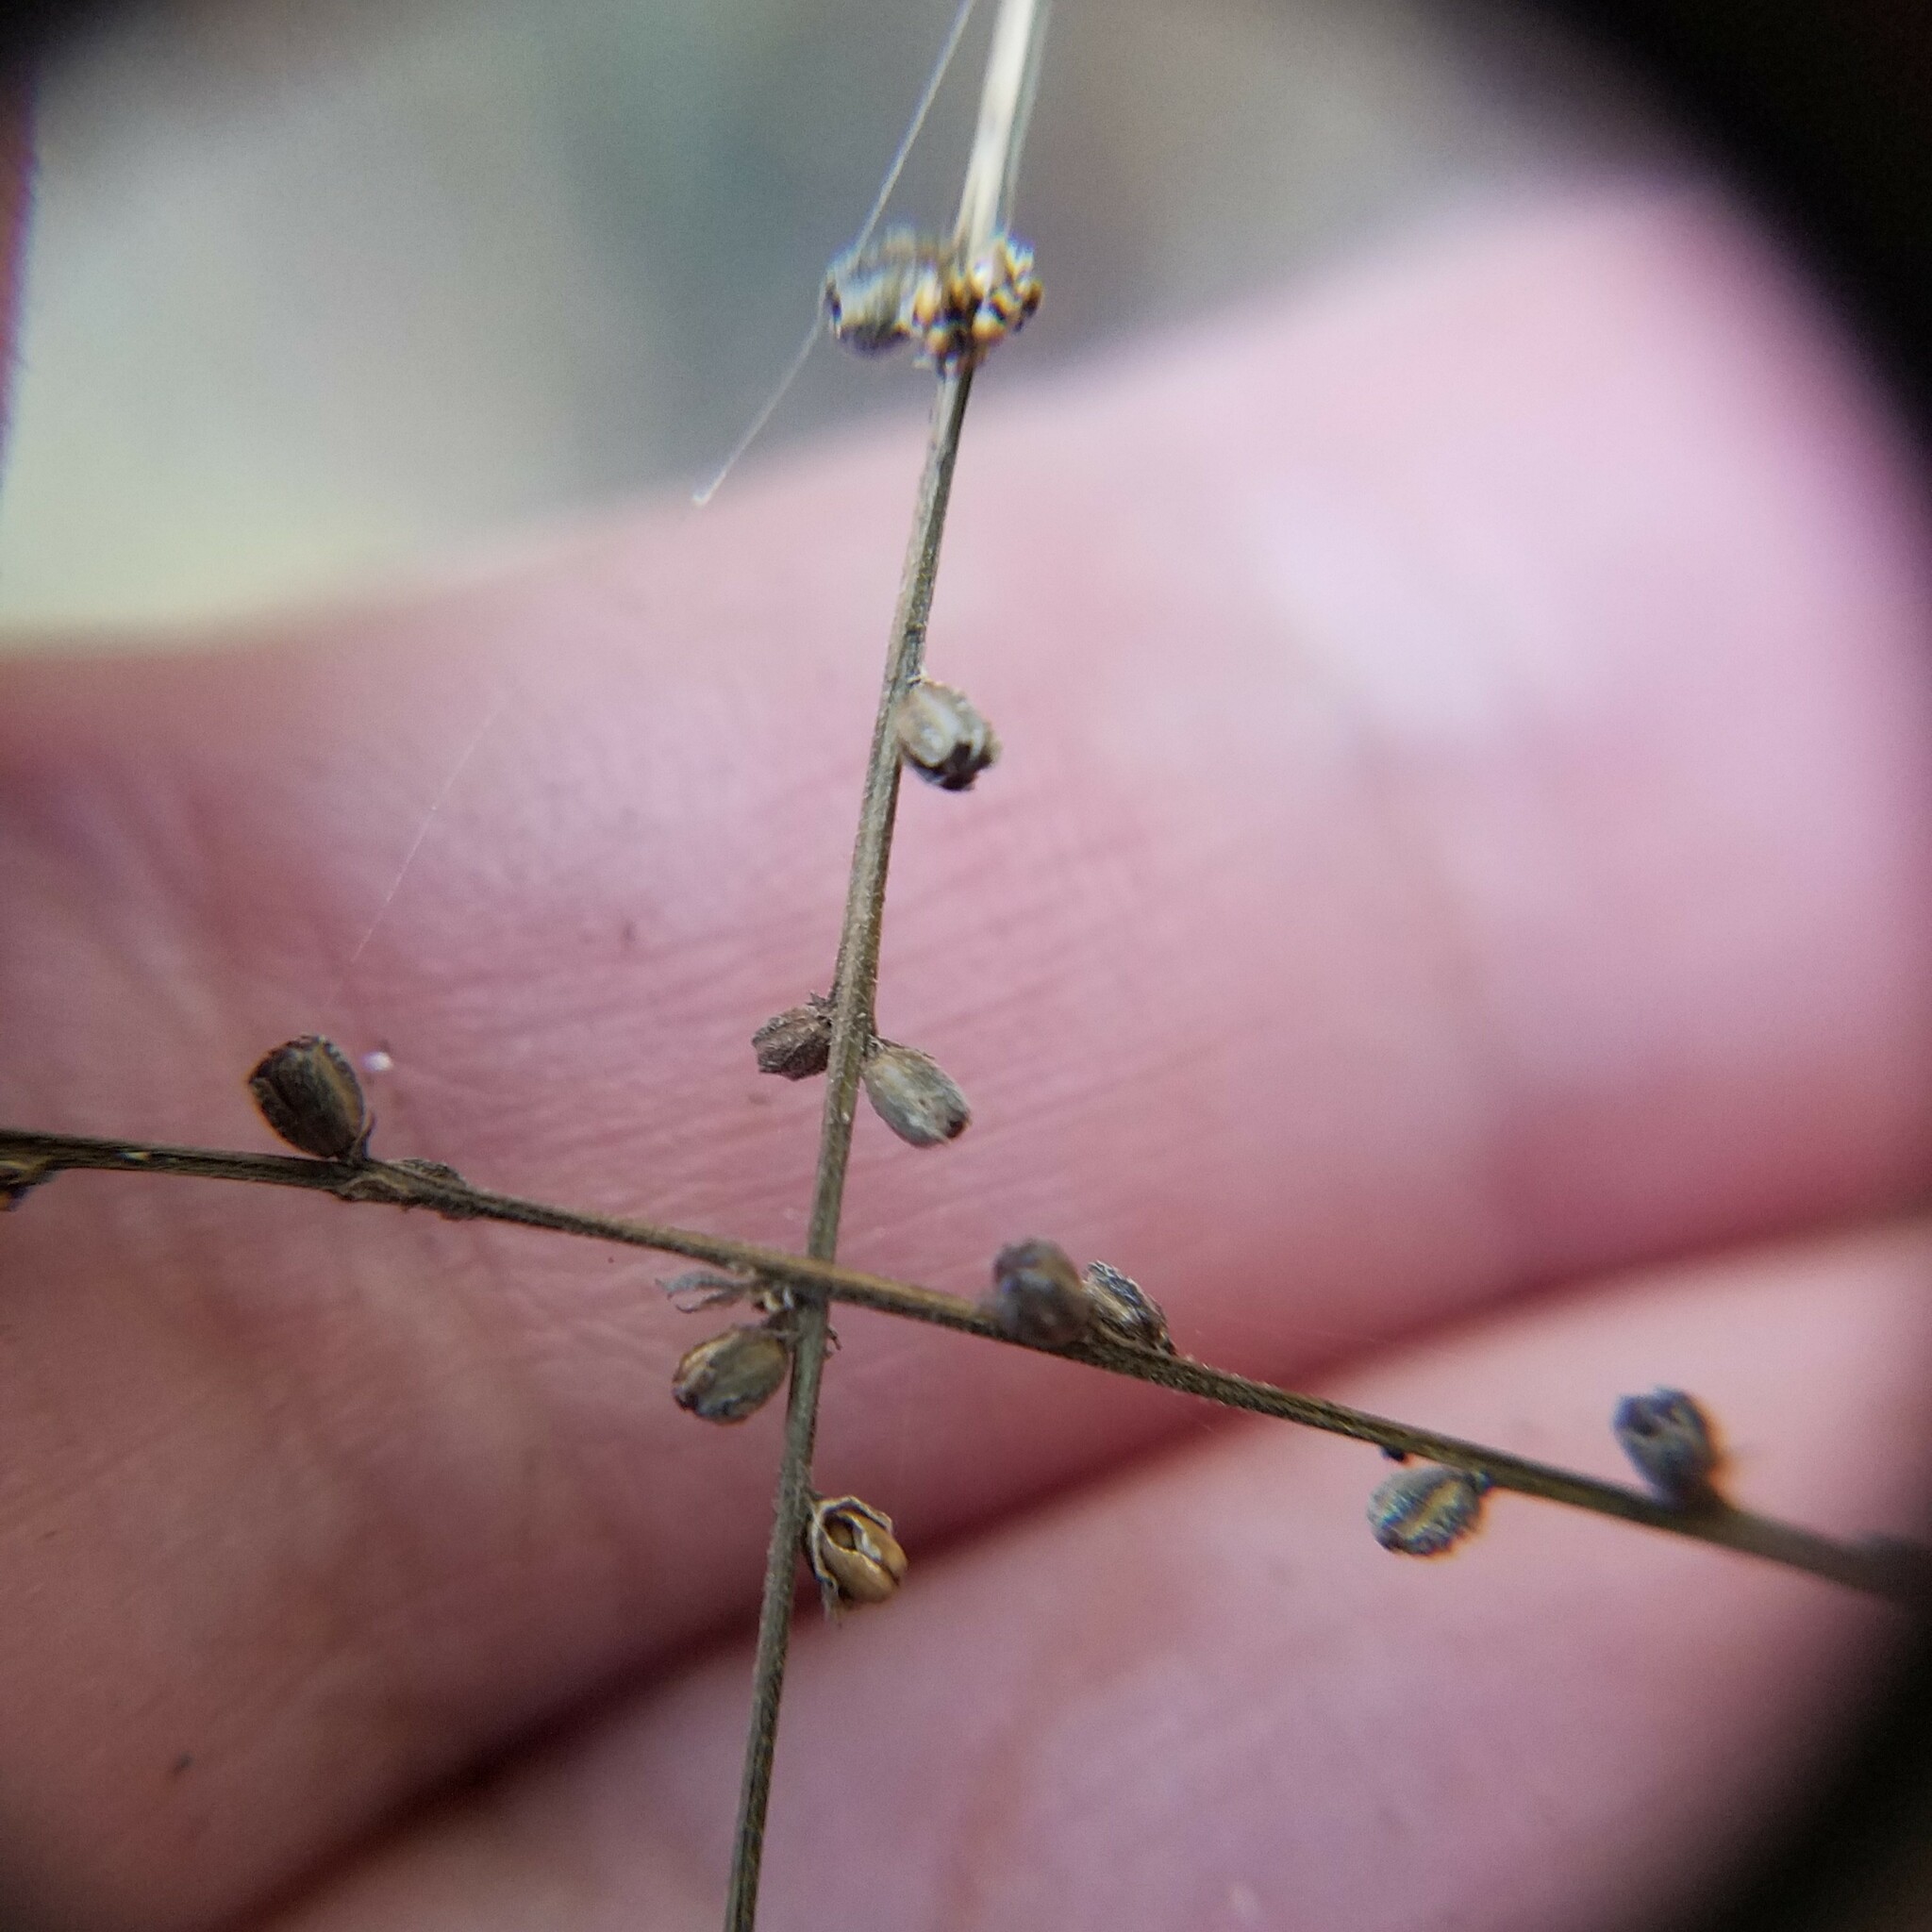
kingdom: Plantae
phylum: Tracheophyta
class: Magnoliopsida
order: Lamiales
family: Verbenaceae
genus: Verbena
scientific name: Verbena urticifolia
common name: Nettle-leaved vervain
